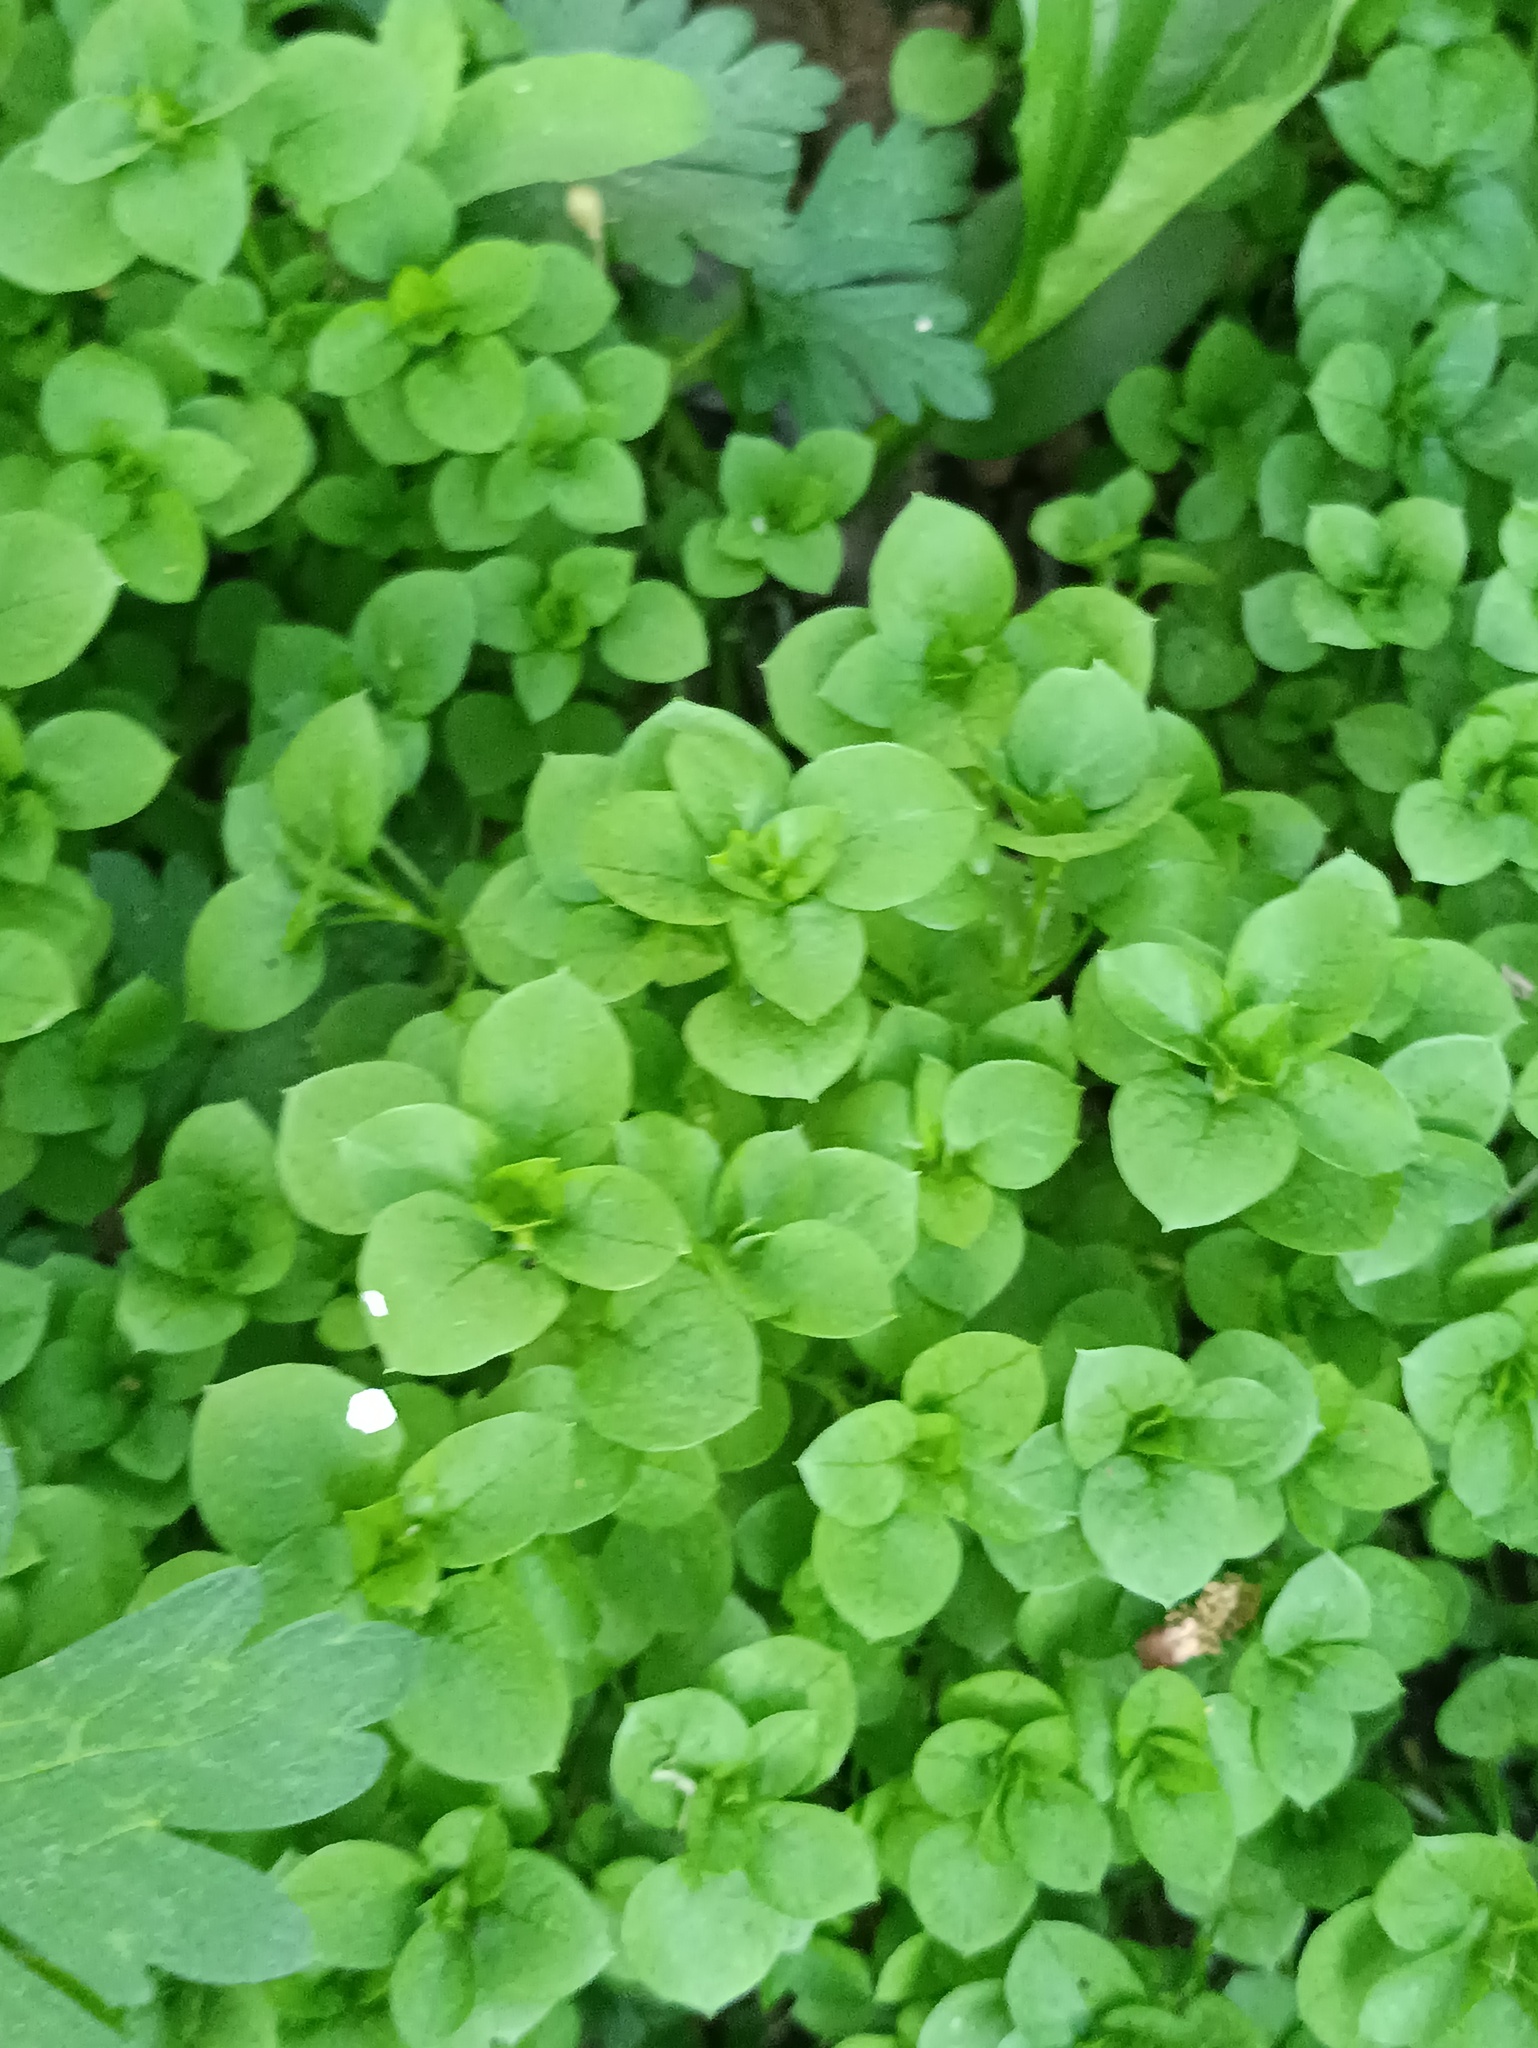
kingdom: Plantae
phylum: Tracheophyta
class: Magnoliopsida
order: Caryophyllales
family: Caryophyllaceae
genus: Stellaria
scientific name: Stellaria media
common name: Common chickweed
